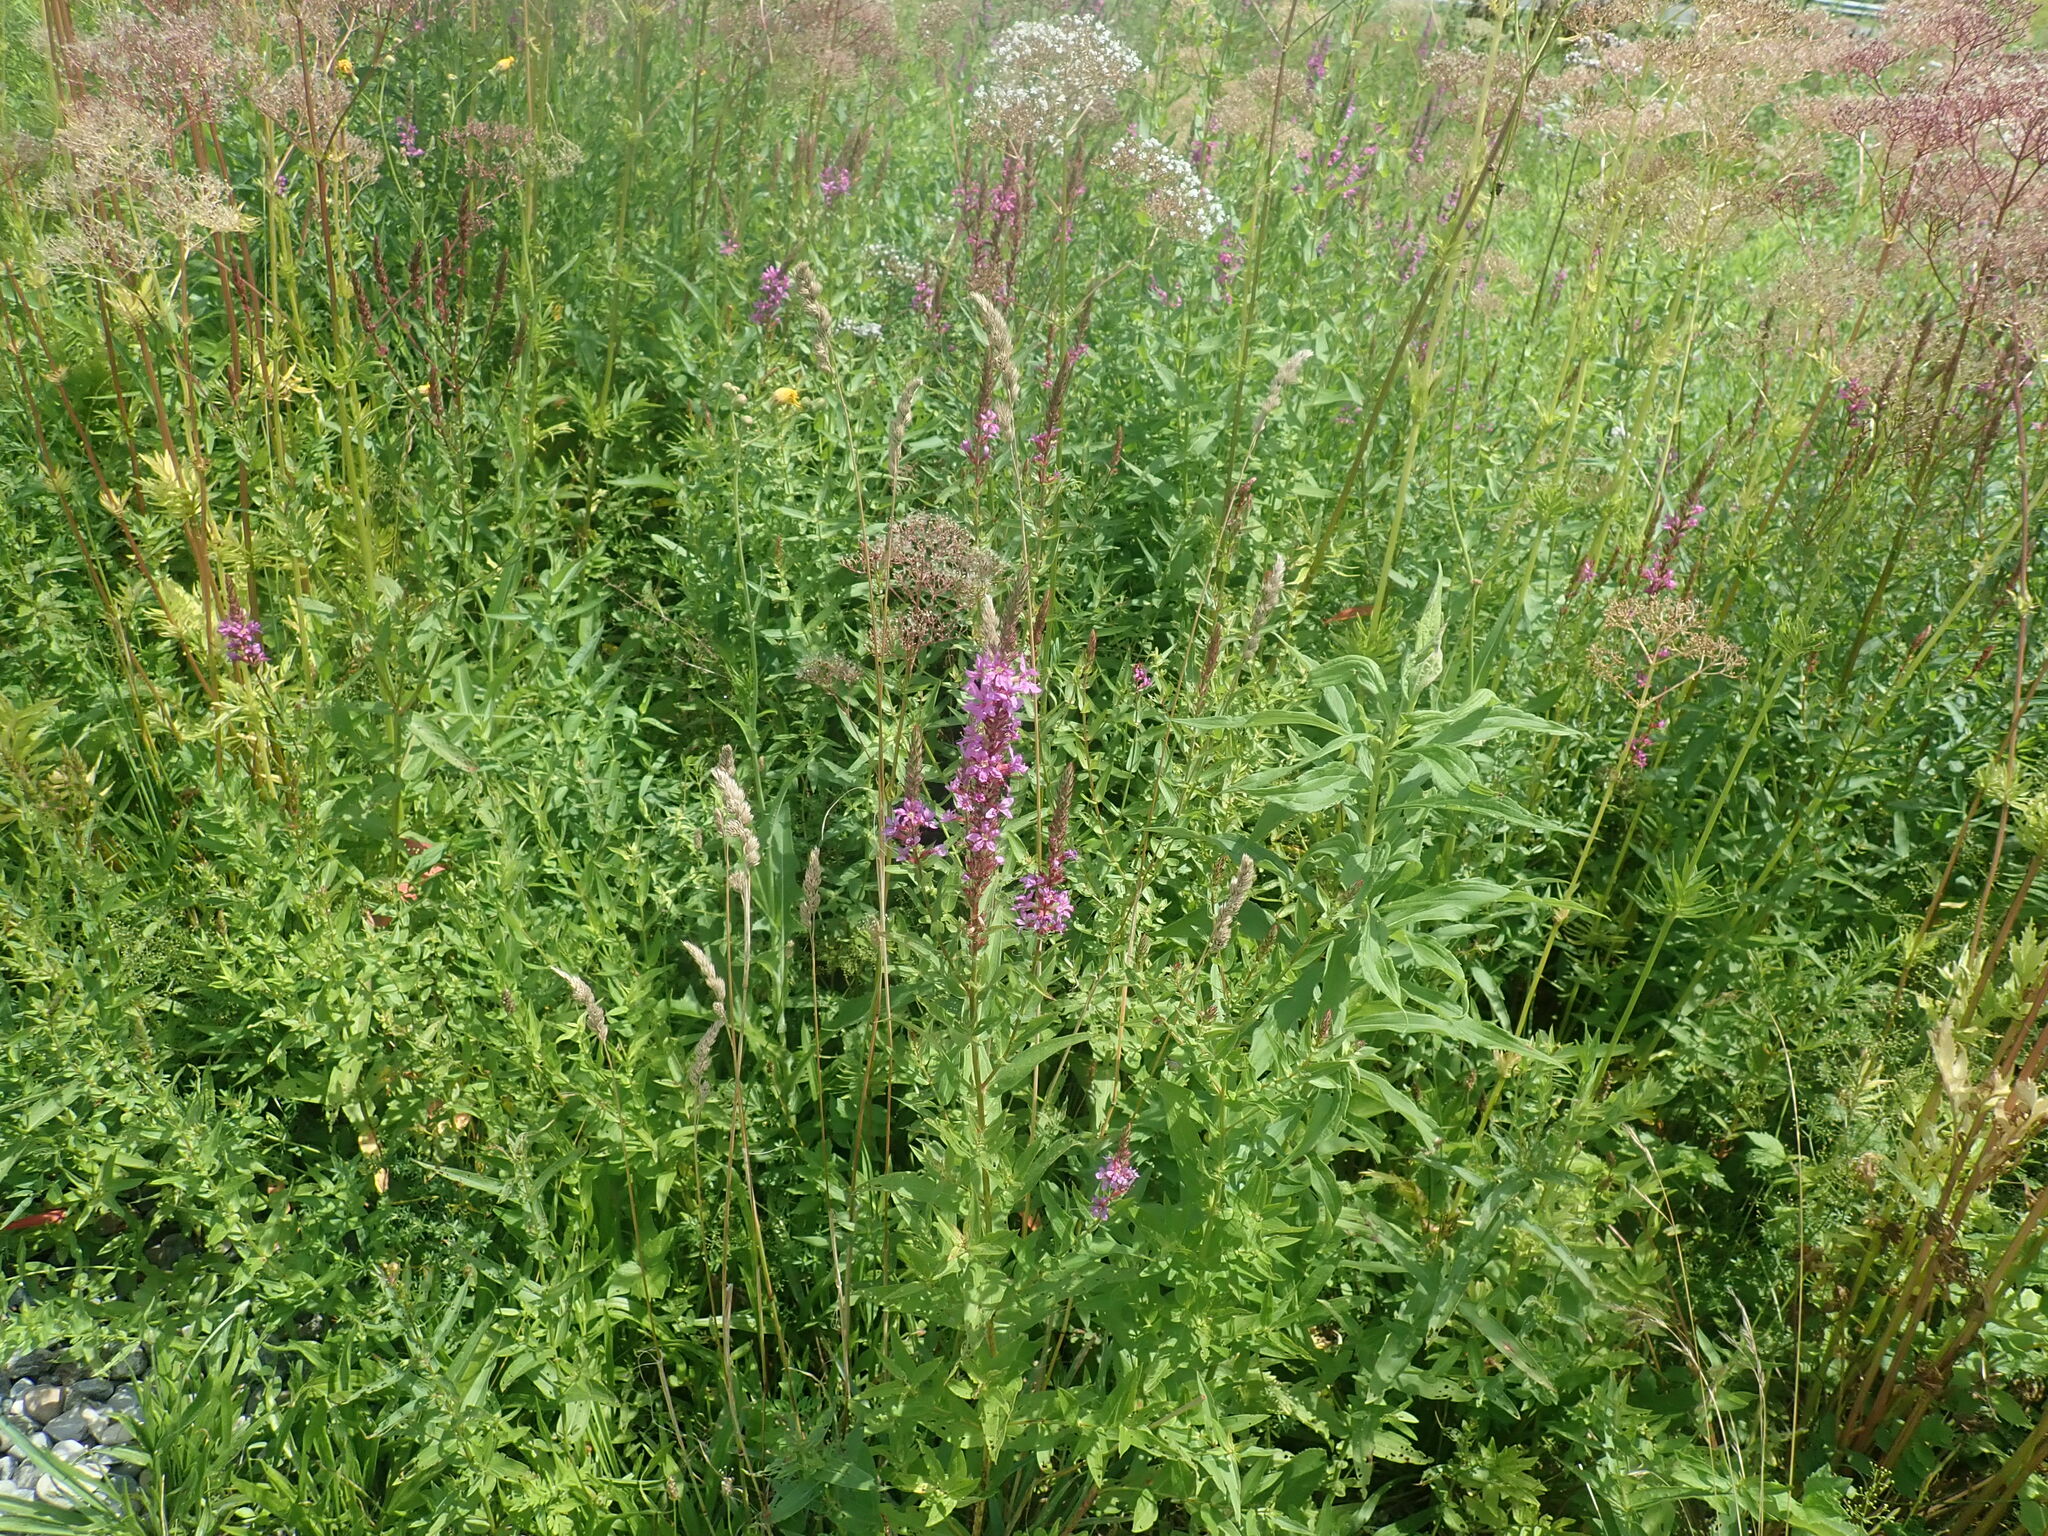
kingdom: Plantae
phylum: Tracheophyta
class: Magnoliopsida
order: Myrtales
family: Lythraceae
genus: Lythrum
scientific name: Lythrum salicaria
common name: Purple loosestrife
